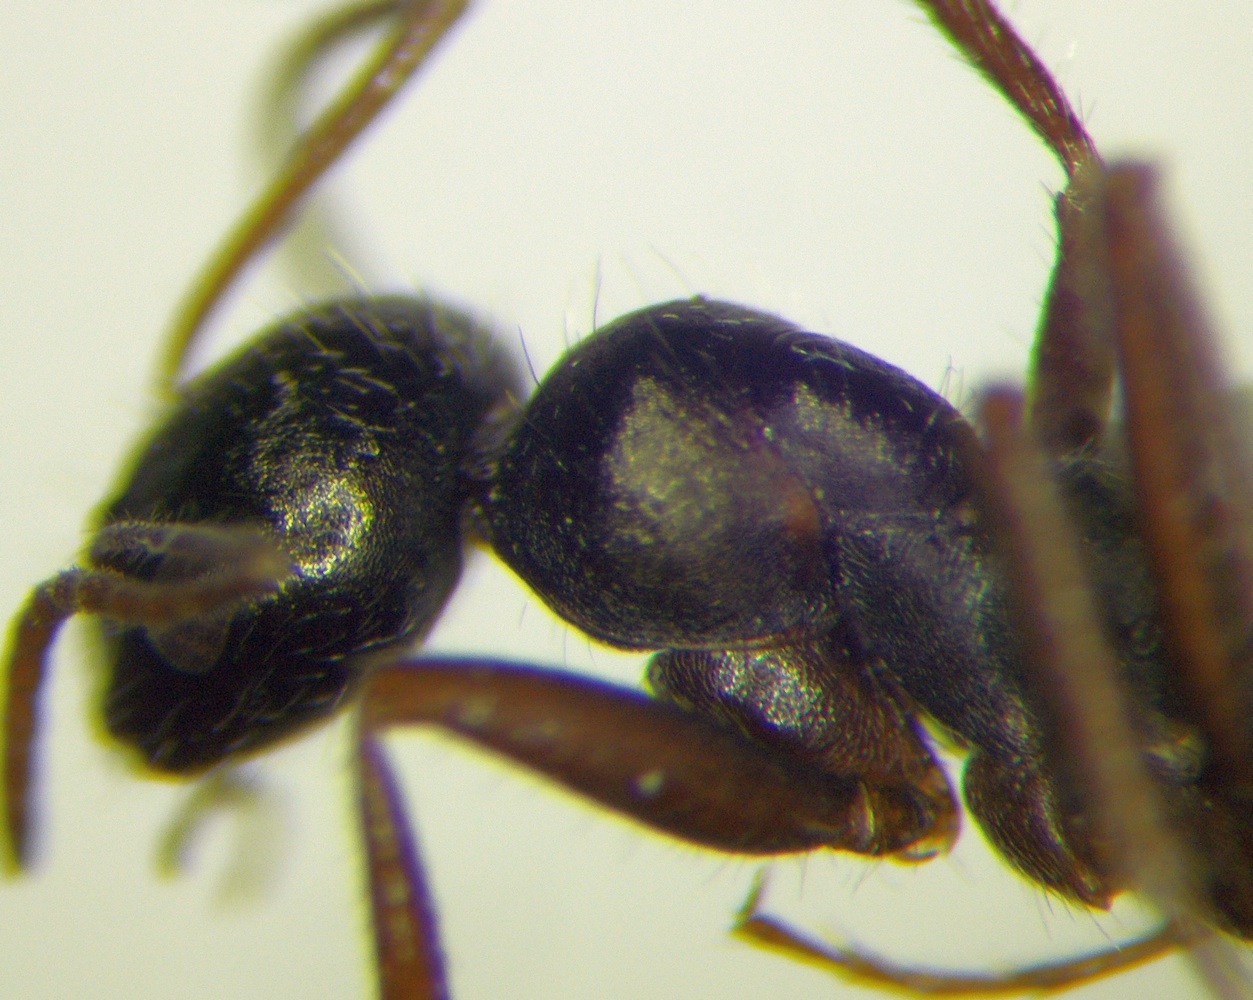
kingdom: Animalia
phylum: Arthropoda
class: Insecta
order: Hymenoptera
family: Formicidae
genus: Alloformica
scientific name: Alloformica aberrans
